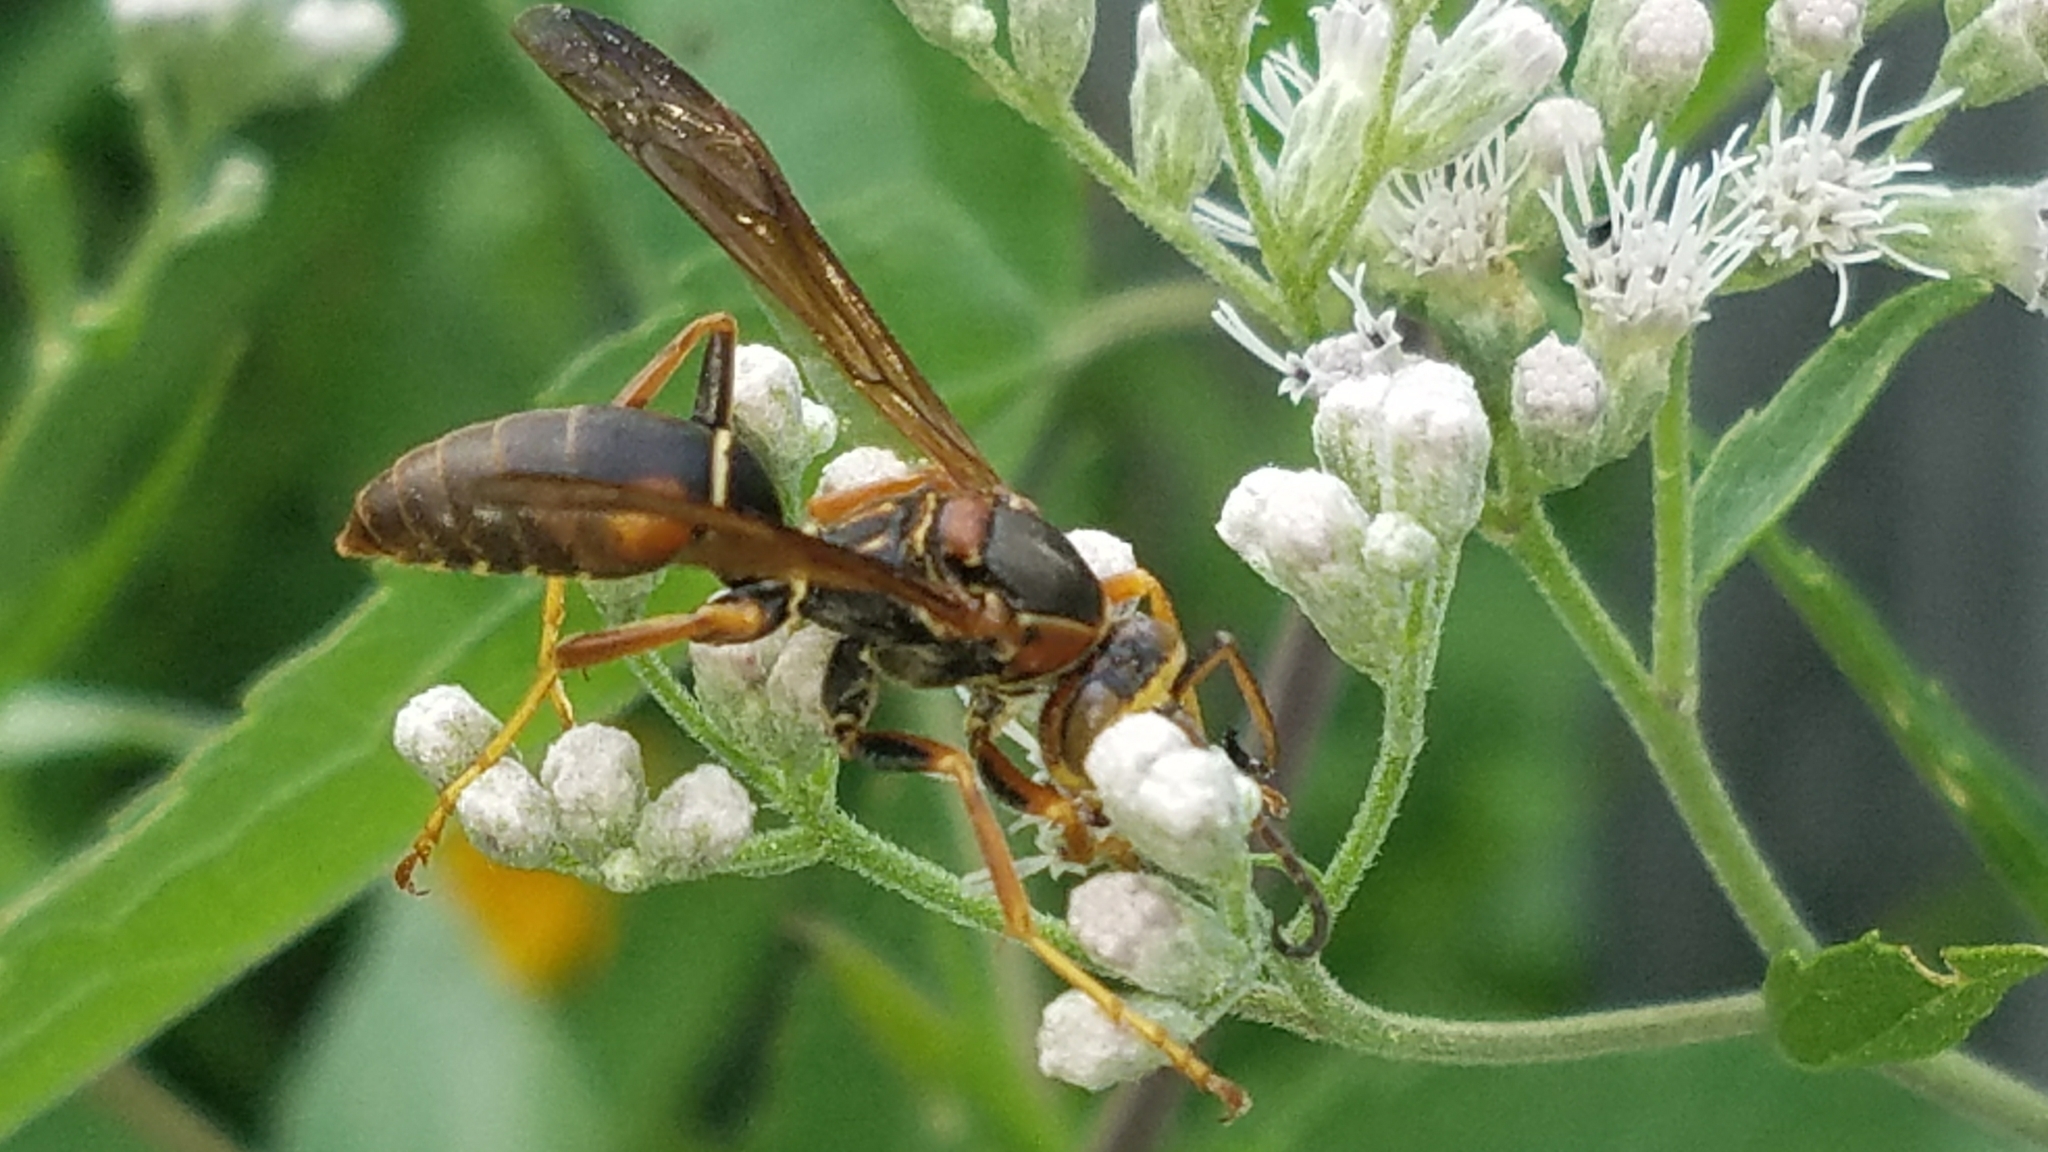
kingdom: Animalia
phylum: Arthropoda
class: Insecta
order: Hymenoptera
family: Eumenidae
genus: Polistes
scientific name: Polistes fuscatus
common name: Dark paper wasp
